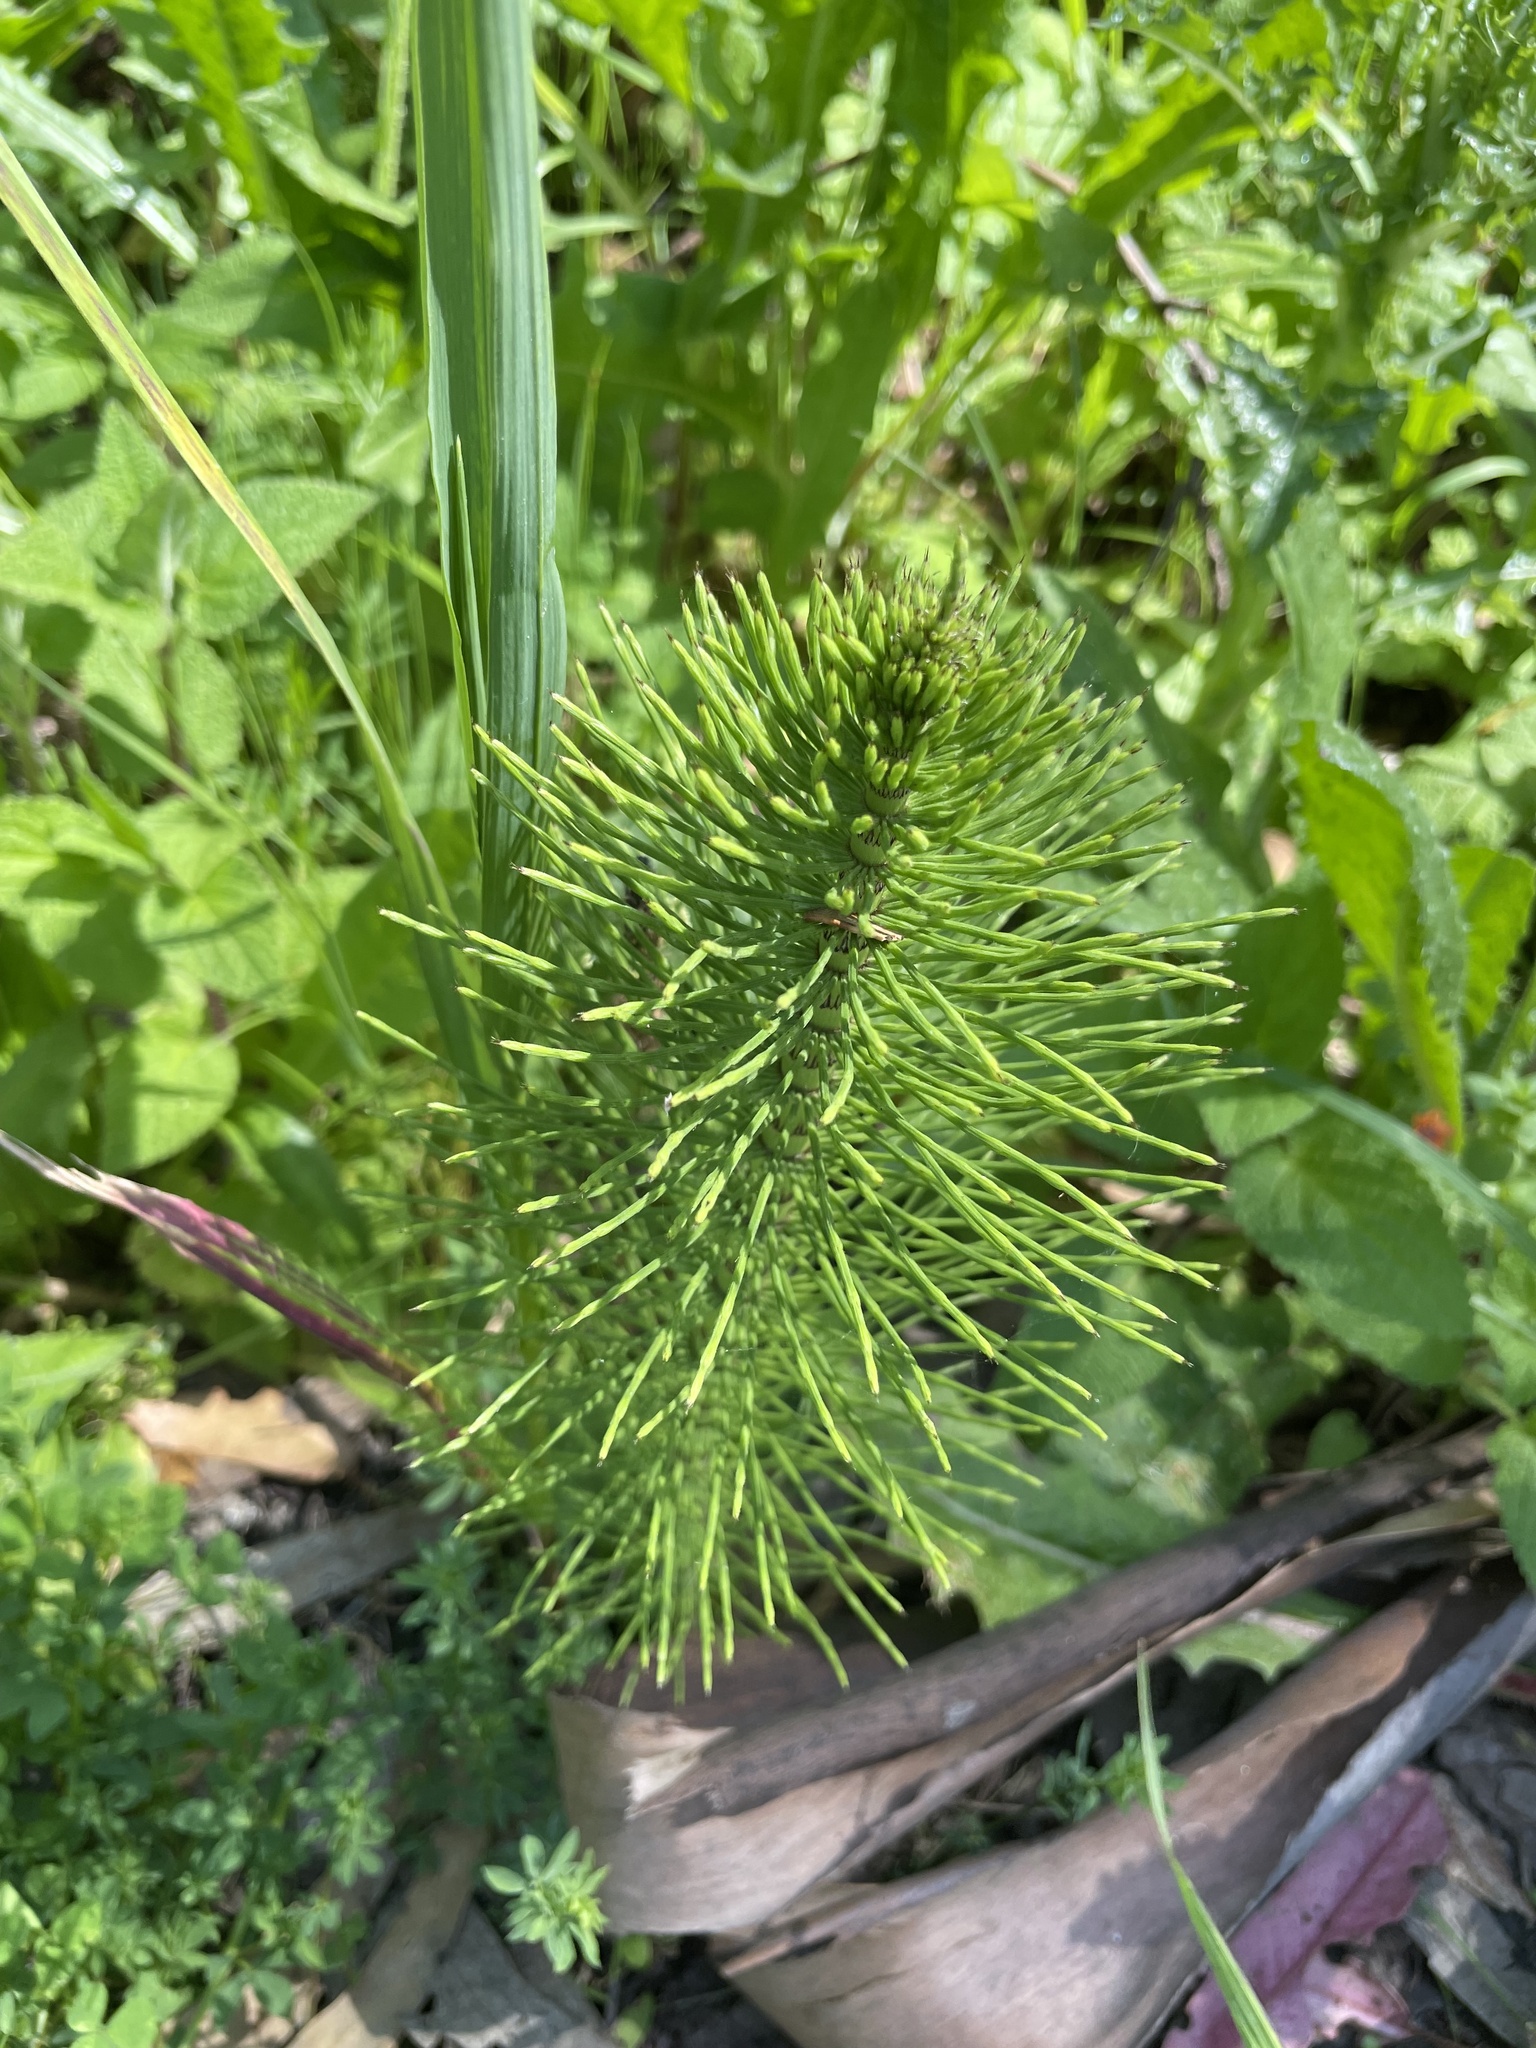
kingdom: Plantae
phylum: Tracheophyta
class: Polypodiopsida
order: Equisetales
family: Equisetaceae
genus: Equisetum
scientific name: Equisetum telmateia
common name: Great horsetail
